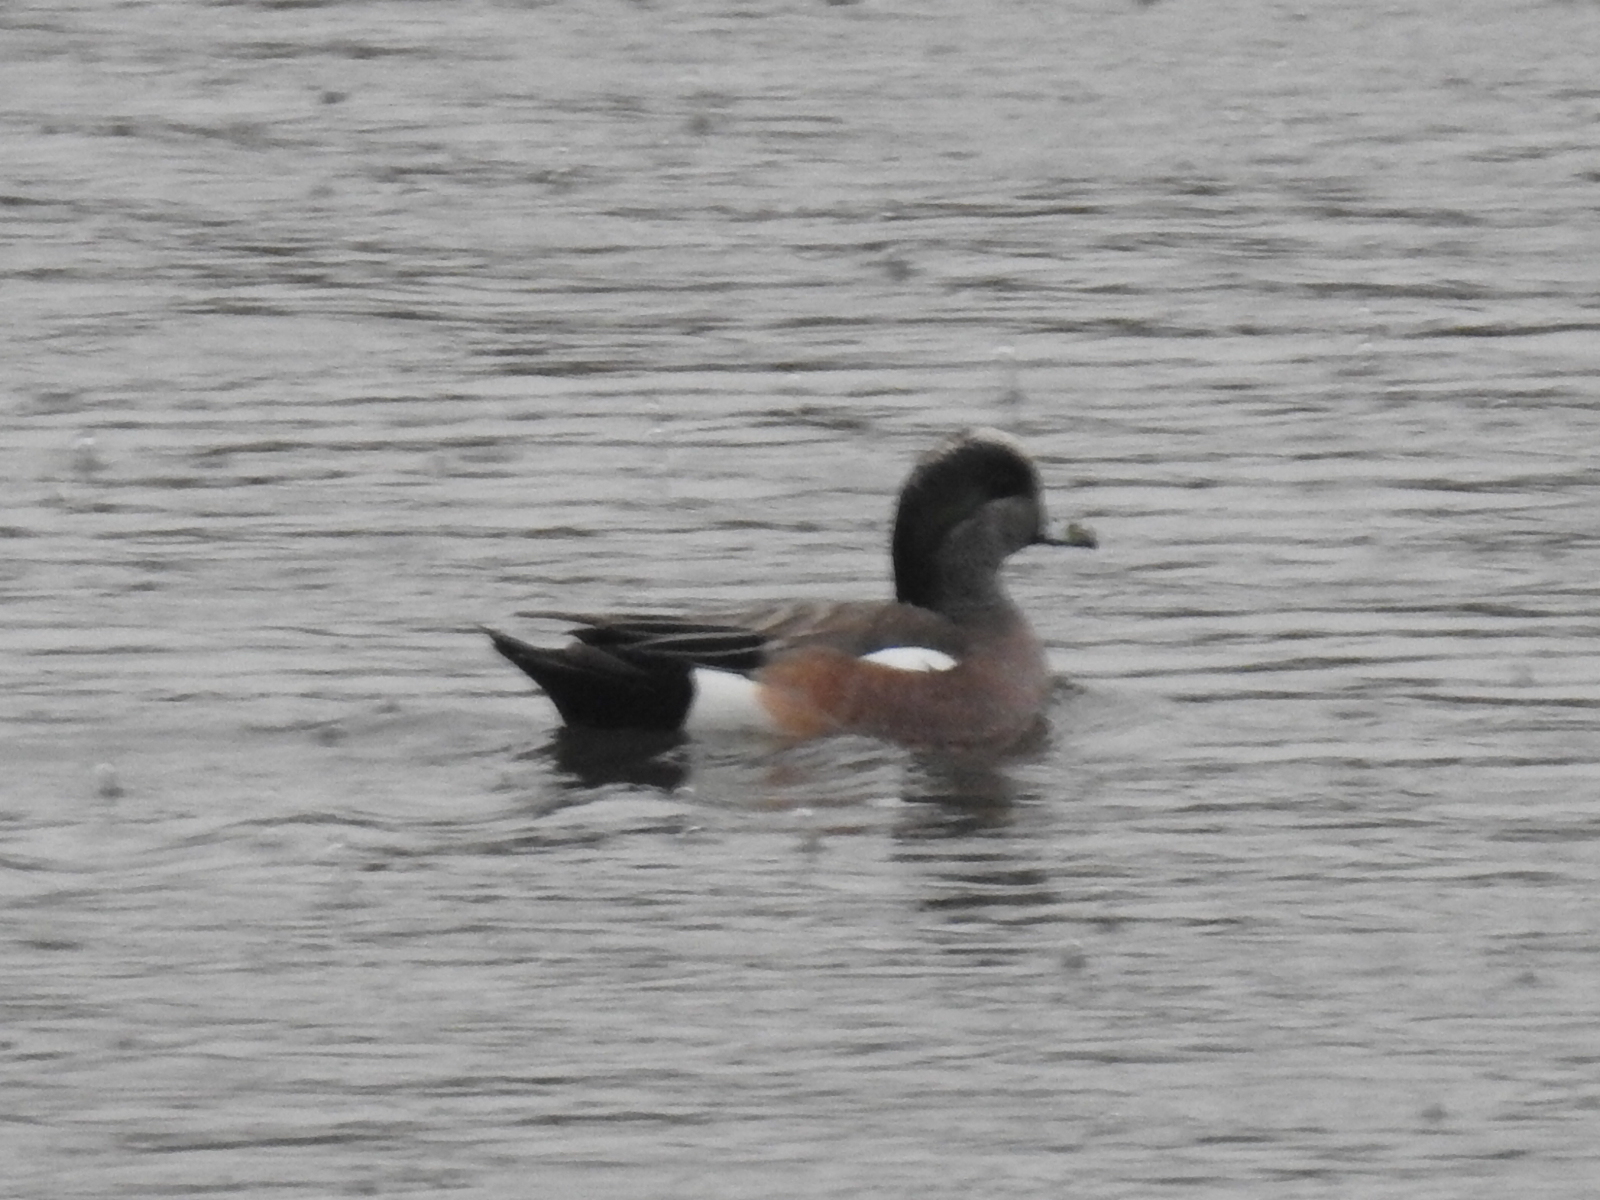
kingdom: Animalia
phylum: Chordata
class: Aves
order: Anseriformes
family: Anatidae
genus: Mareca
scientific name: Mareca americana
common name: American wigeon
